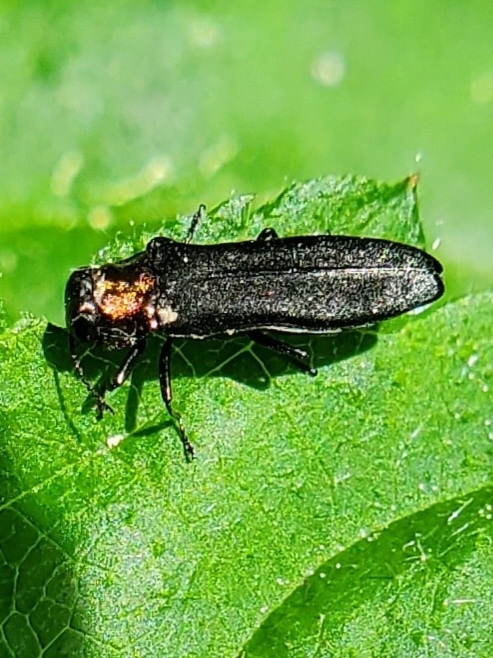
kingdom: Animalia
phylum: Arthropoda
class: Insecta
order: Coleoptera
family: Buprestidae
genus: Agrilus
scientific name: Agrilus ruficollis
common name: Red-necked cane borer beetle
